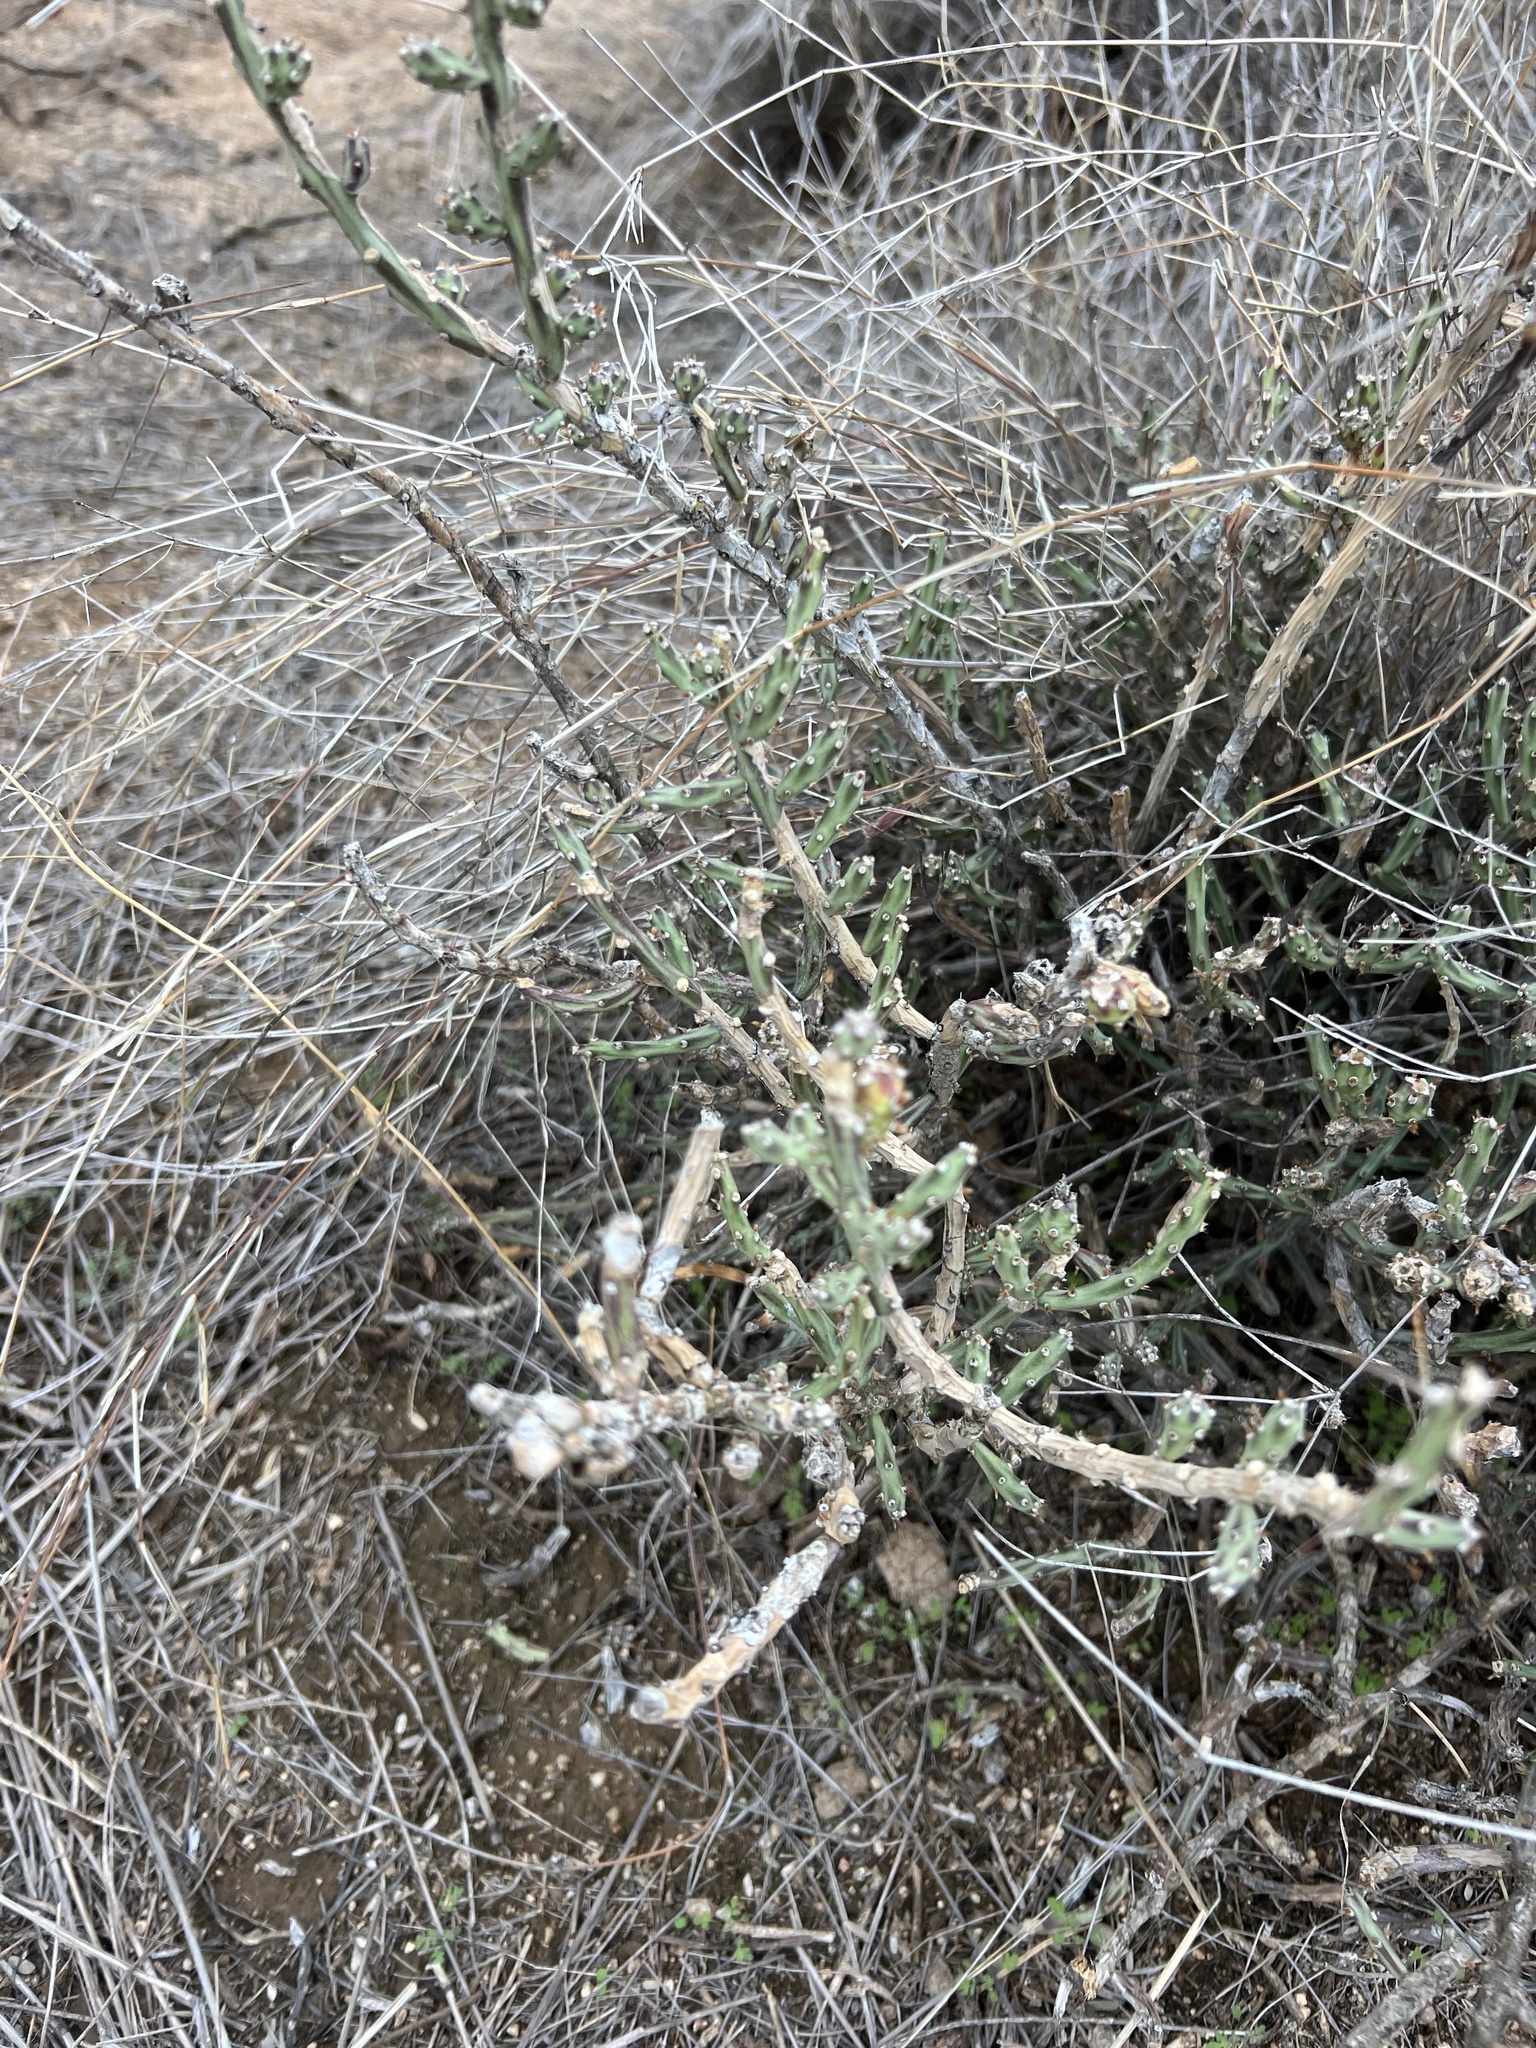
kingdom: Plantae
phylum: Tracheophyta
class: Magnoliopsida
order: Caryophyllales
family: Cactaceae
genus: Cylindropuntia
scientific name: Cylindropuntia leptocaulis
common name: Christmas cactus
